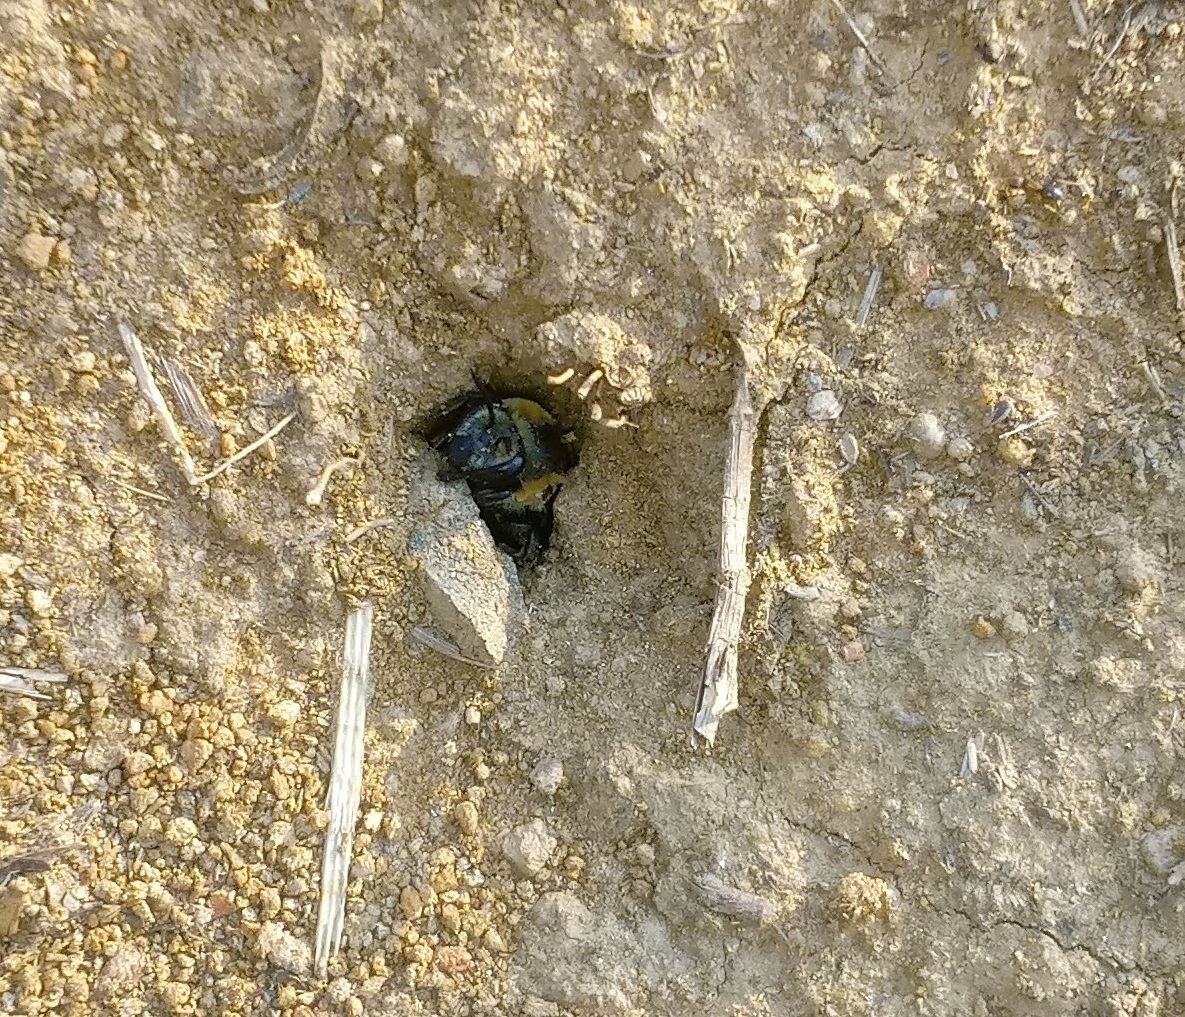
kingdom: Animalia
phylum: Arthropoda
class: Insecta
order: Hymenoptera
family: Colletidae
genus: Colletes
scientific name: Colletes thoracicus
